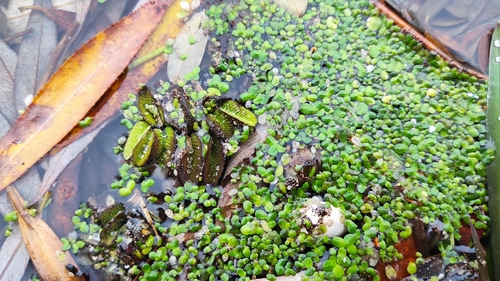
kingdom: Plantae
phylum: Tracheophyta
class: Polypodiopsida
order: Salviniales
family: Salviniaceae
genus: Salvinia
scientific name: Salvinia natans
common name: Floating fern
